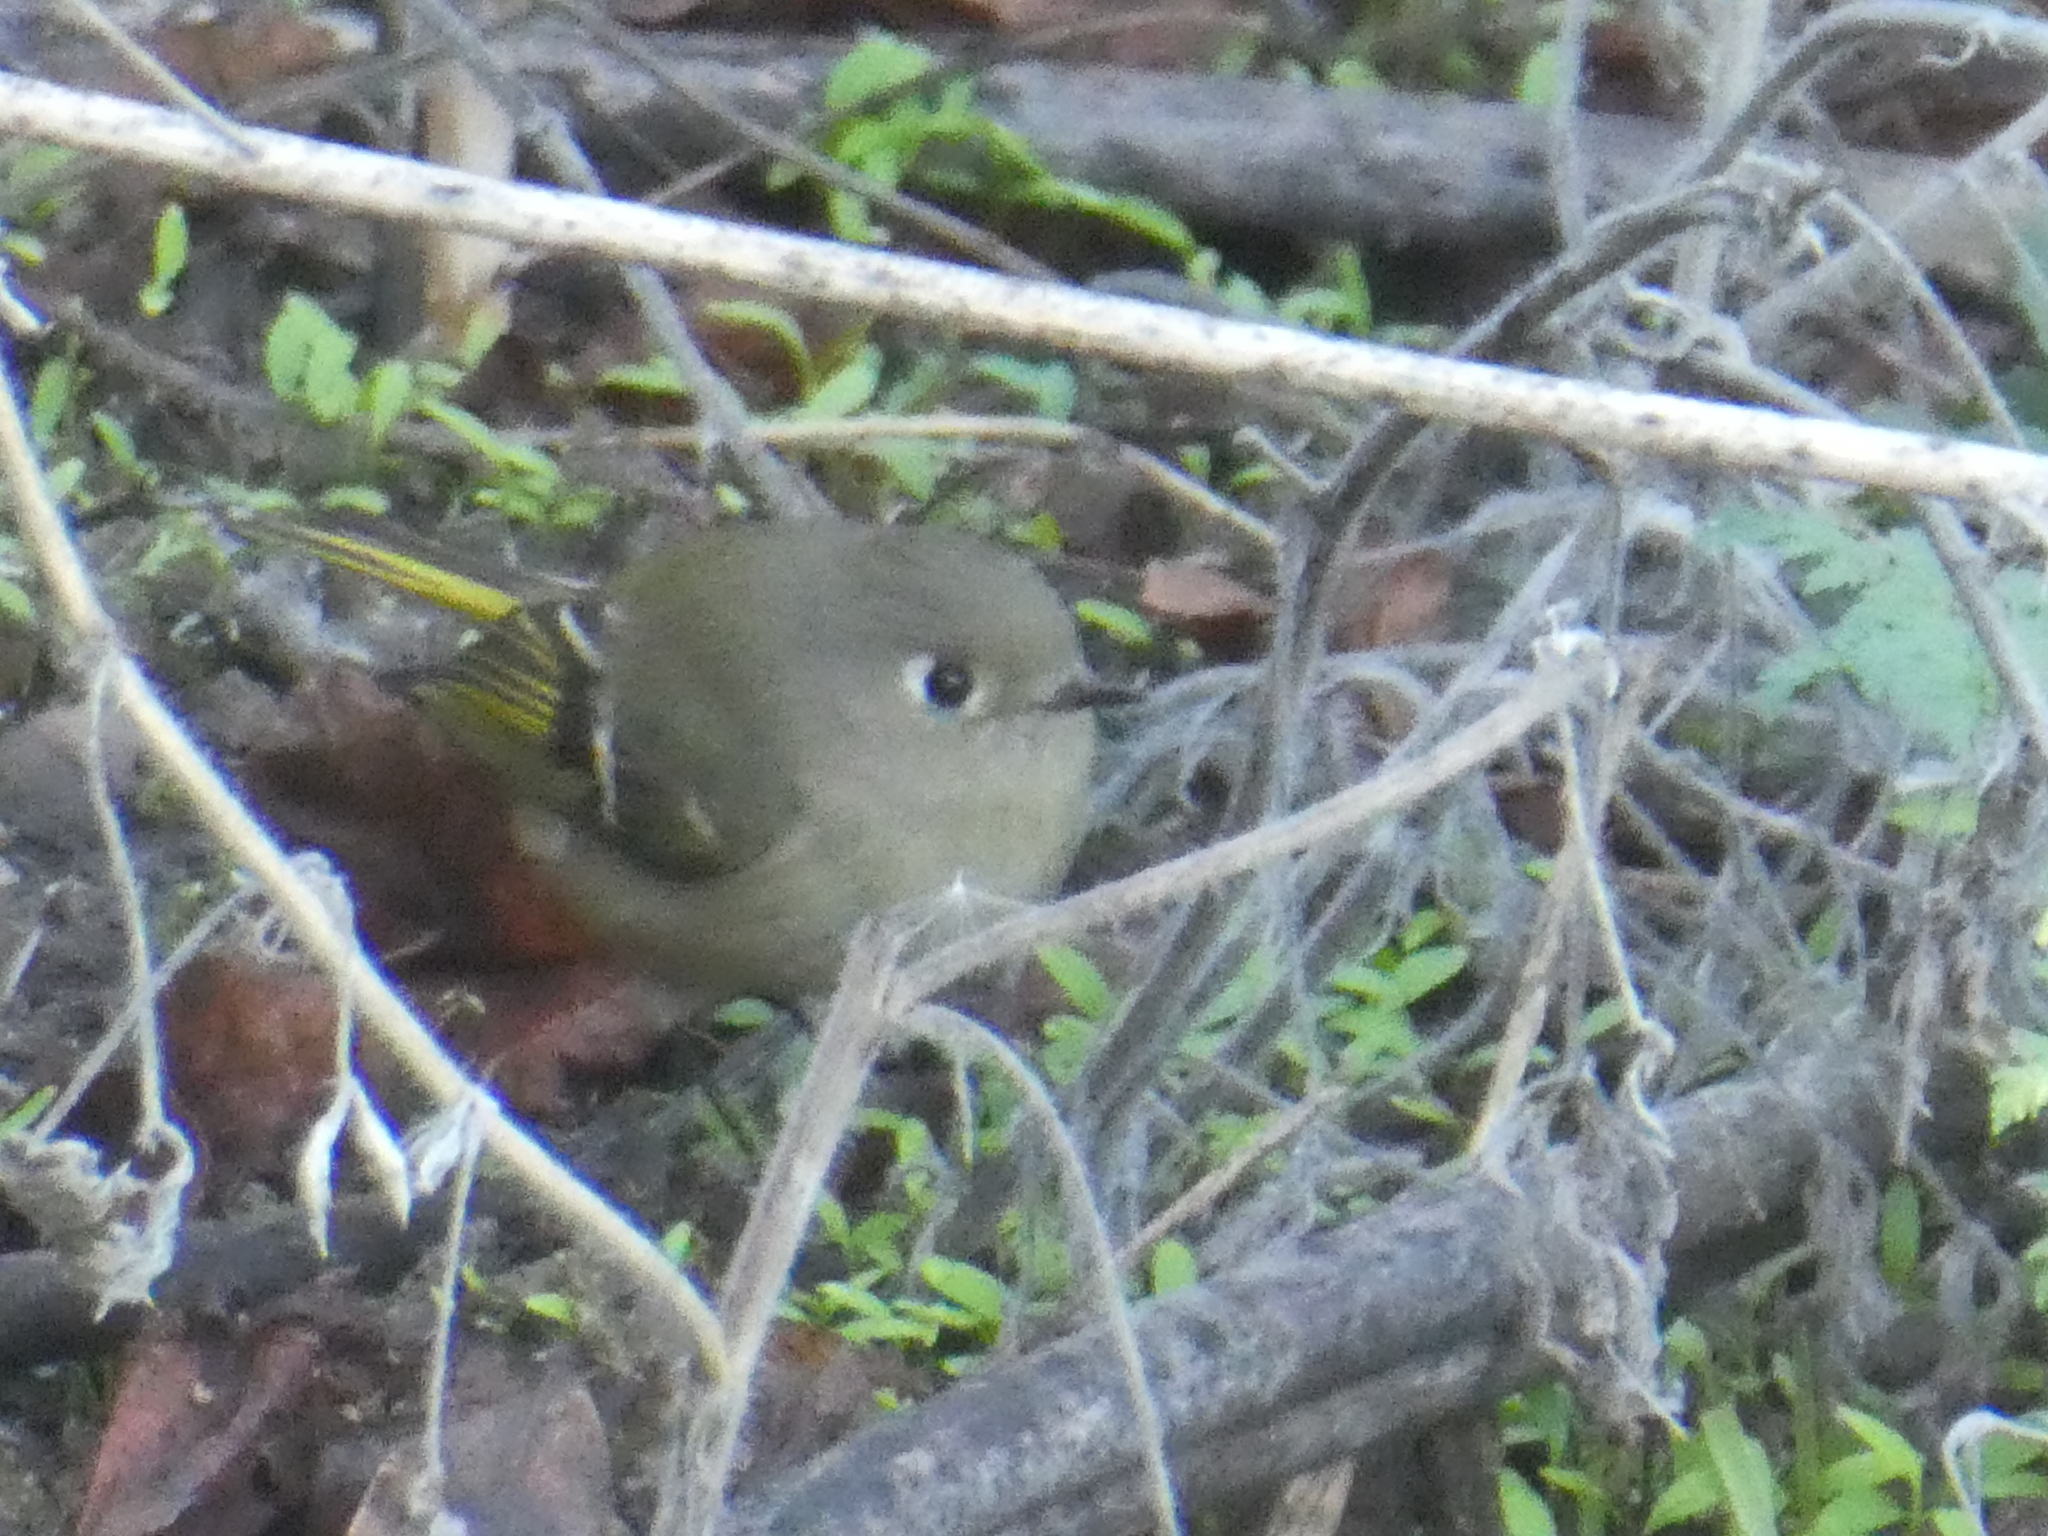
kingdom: Animalia
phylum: Chordata
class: Aves
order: Passeriformes
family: Regulidae
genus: Regulus
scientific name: Regulus calendula
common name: Ruby-crowned kinglet
